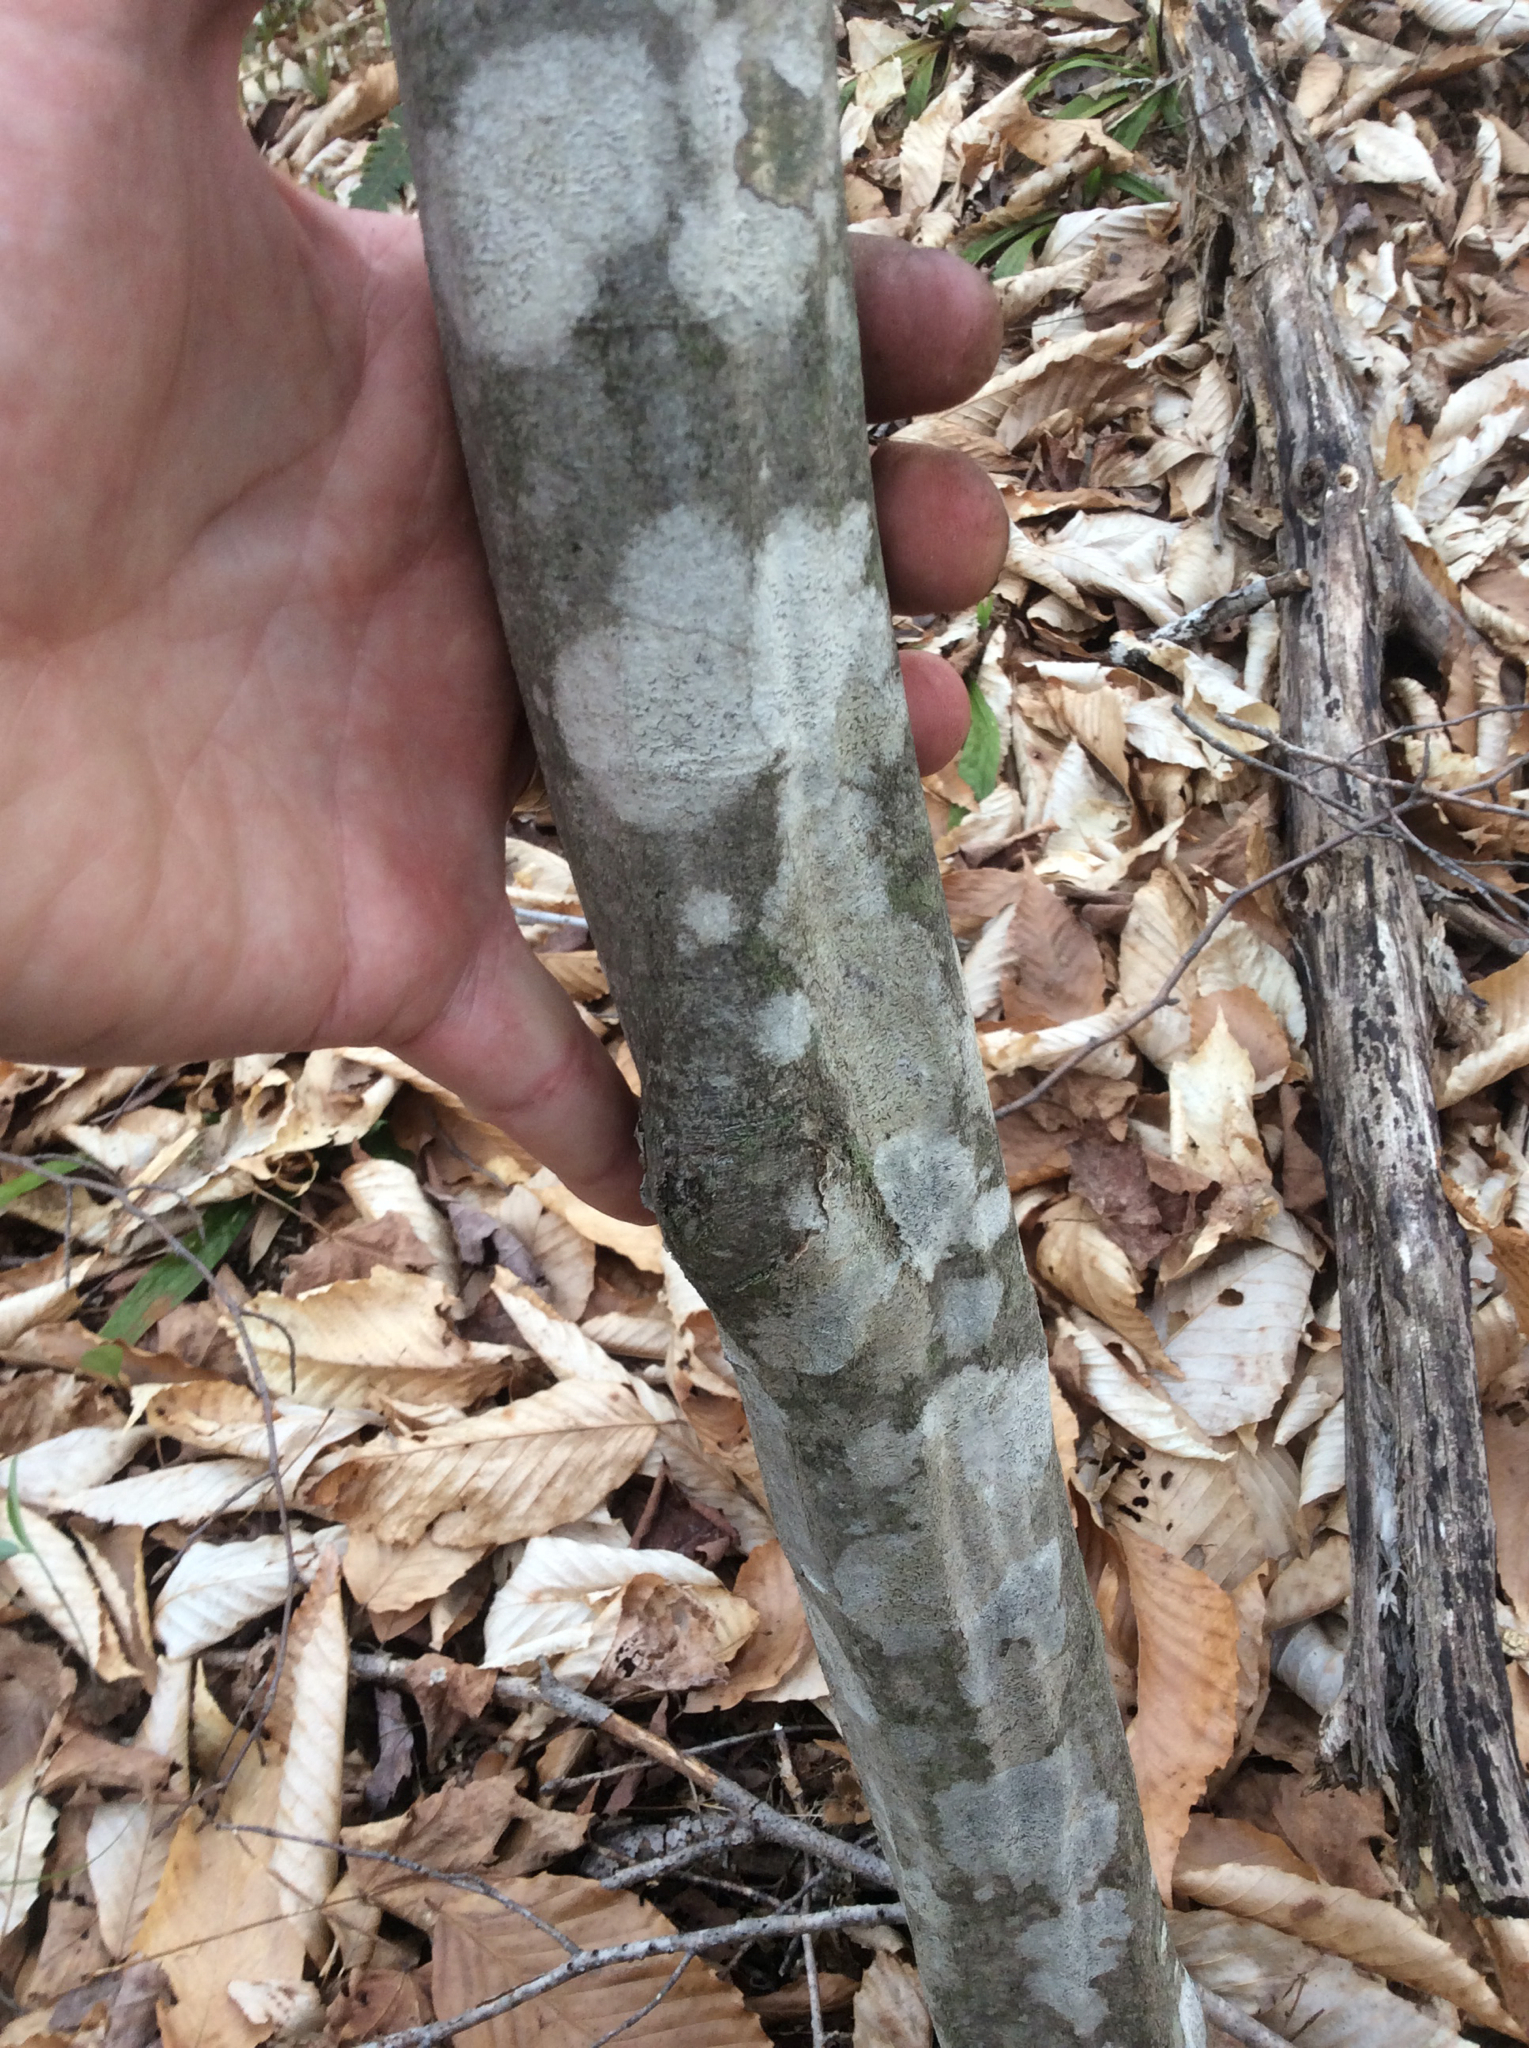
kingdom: Plantae
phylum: Tracheophyta
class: Magnoliopsida
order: Fagales
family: Betulaceae
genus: Carpinus
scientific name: Carpinus caroliniana
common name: American hornbeam
